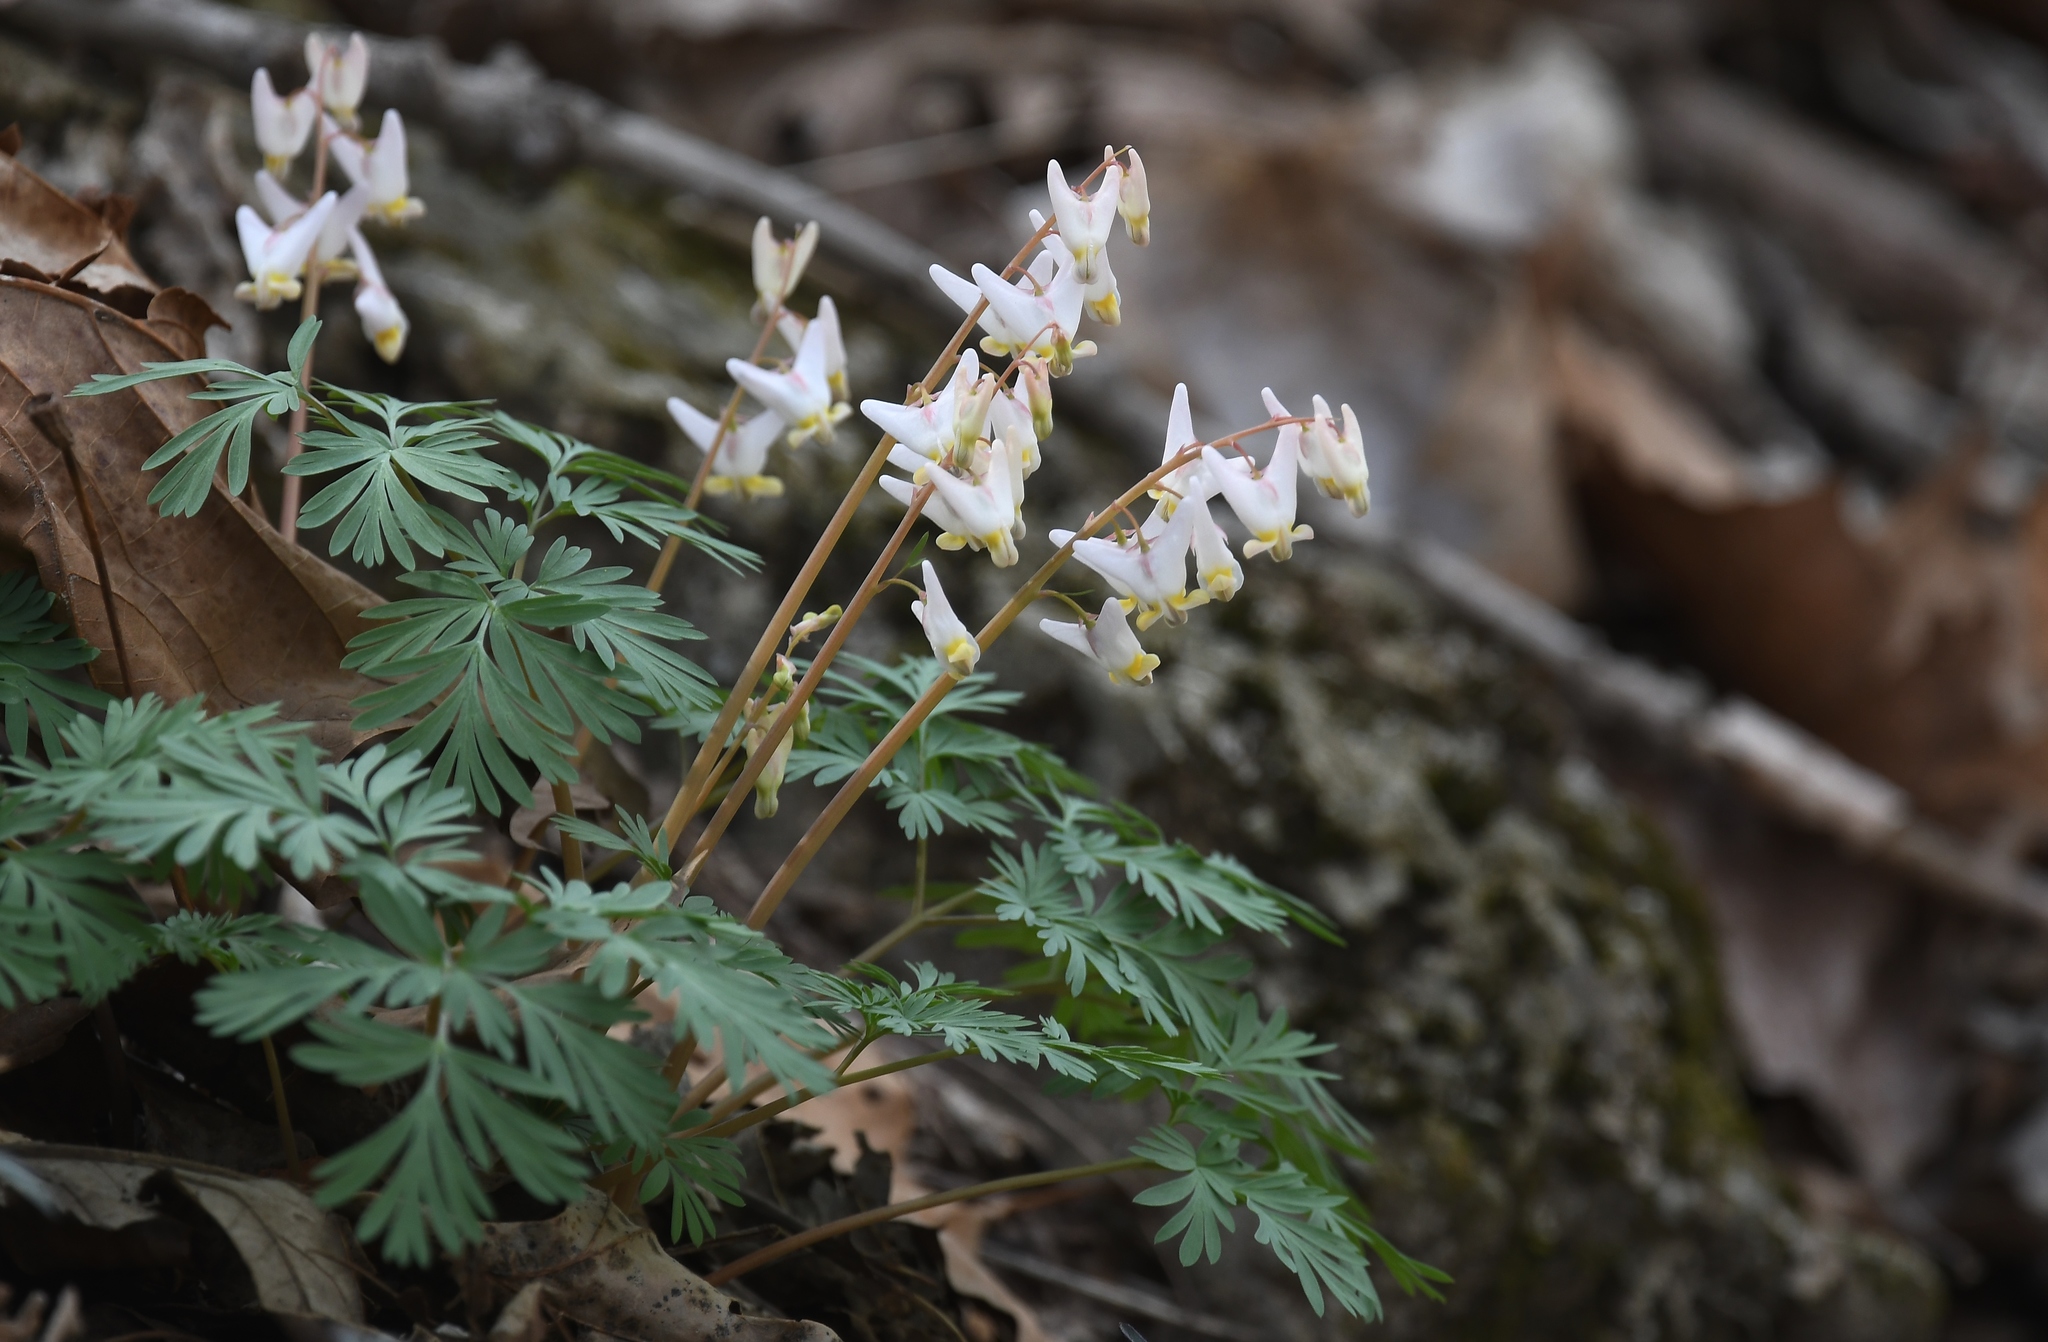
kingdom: Plantae
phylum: Tracheophyta
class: Magnoliopsida
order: Ranunculales
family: Papaveraceae
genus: Dicentra
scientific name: Dicentra cucullaria
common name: Dutchman's breeches
